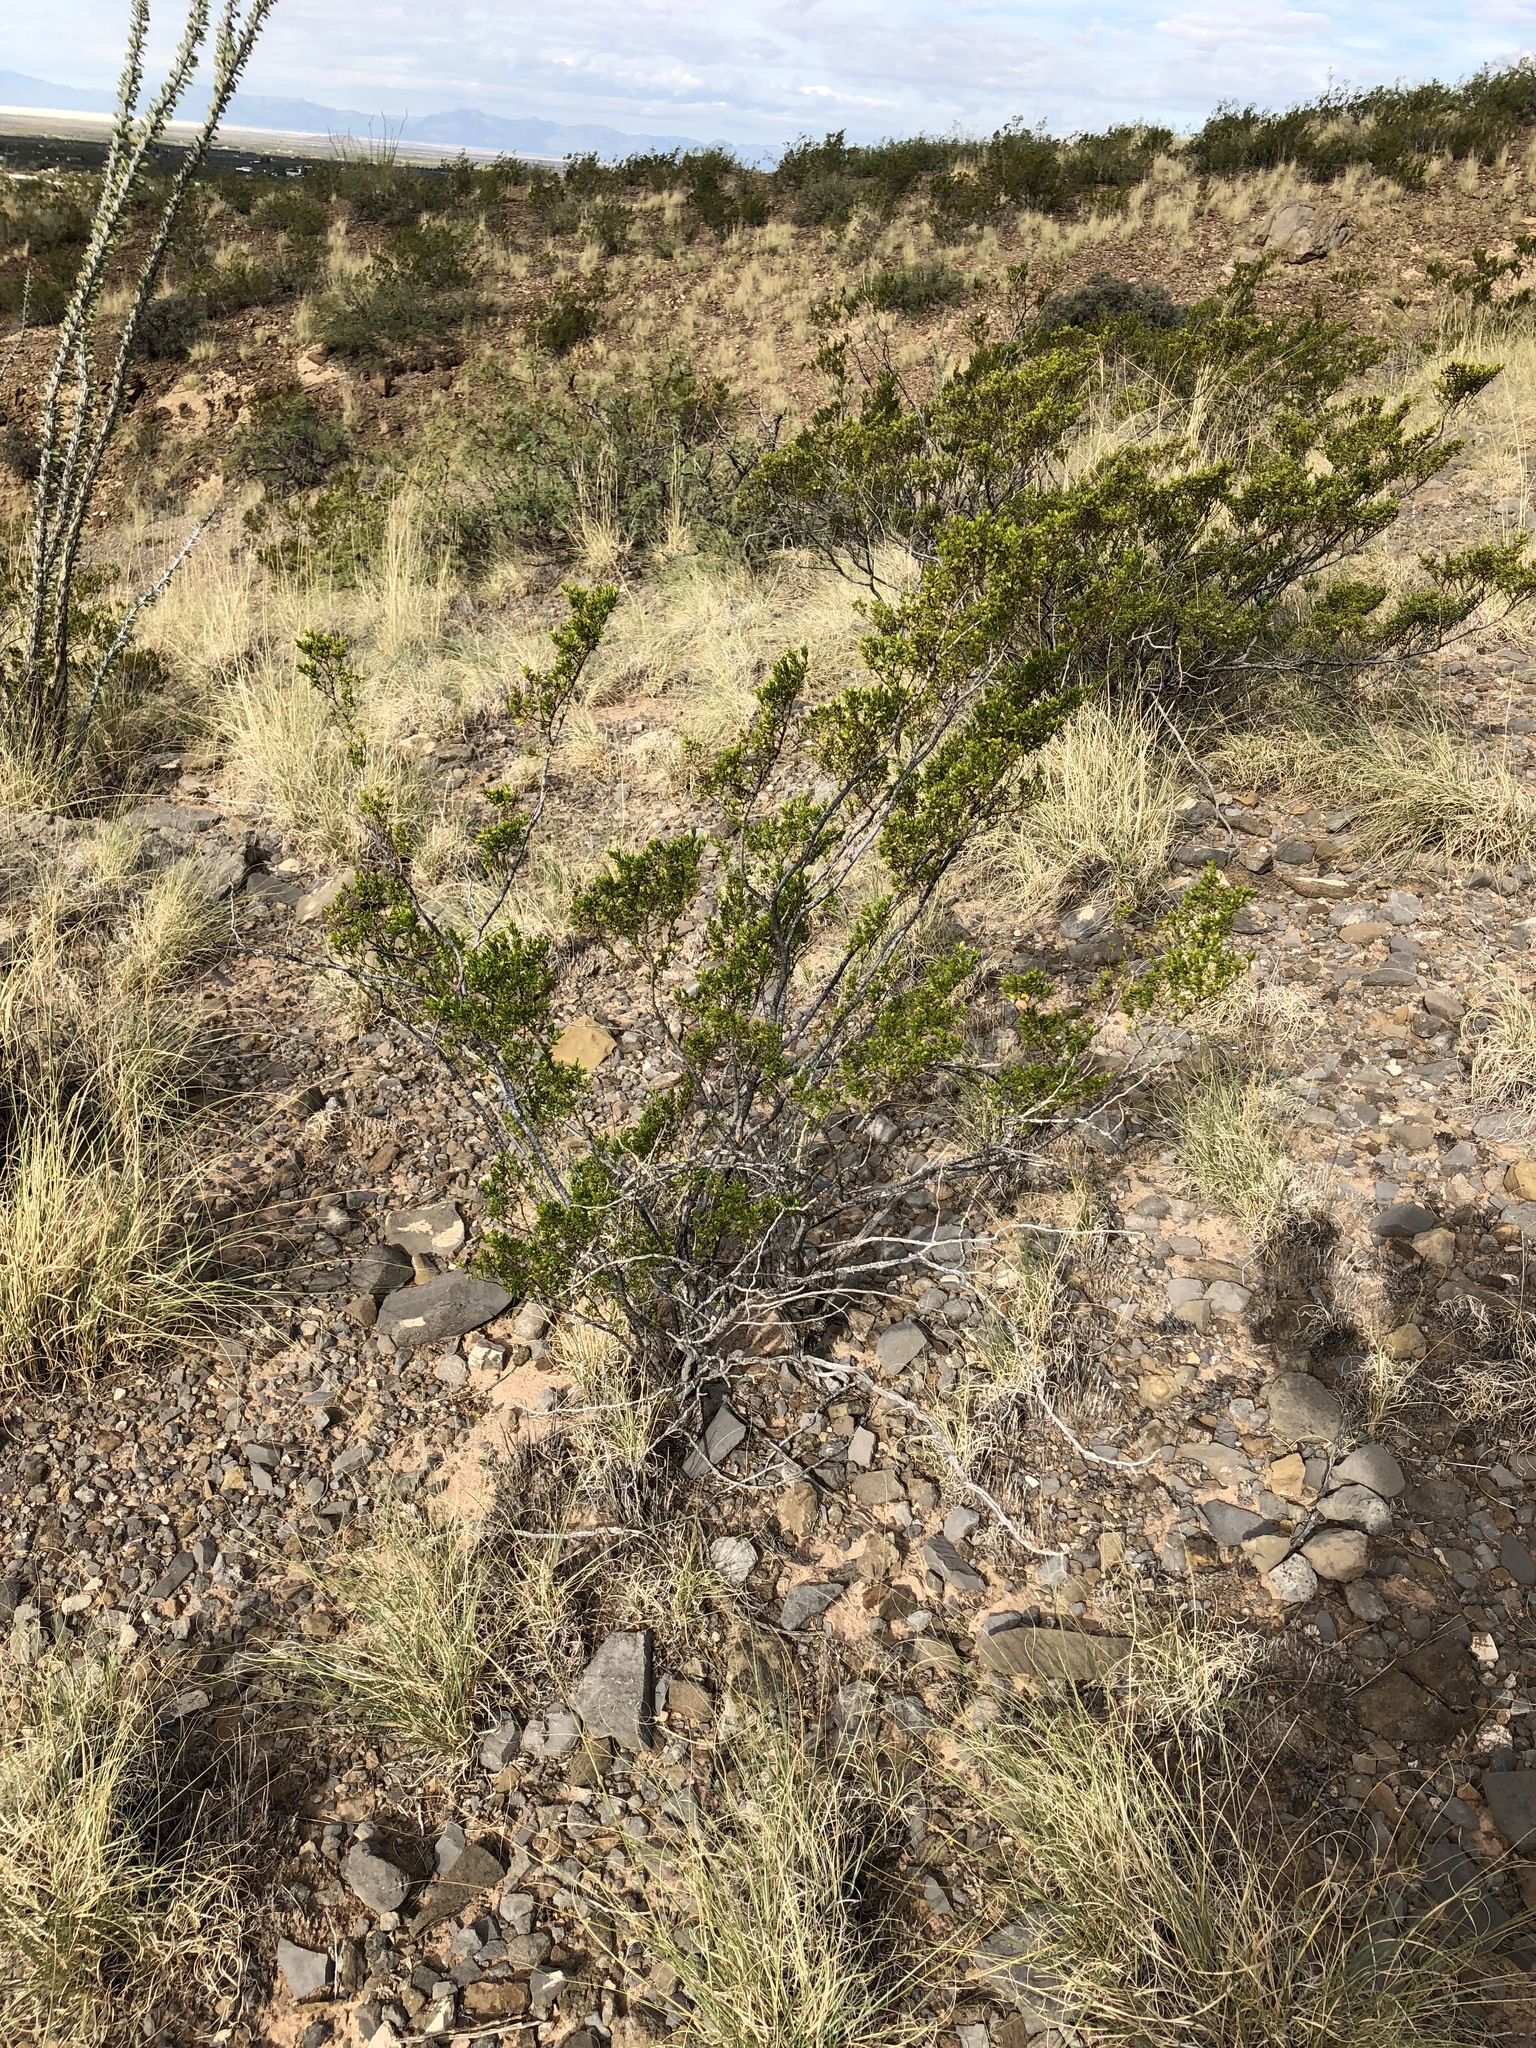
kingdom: Plantae
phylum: Tracheophyta
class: Magnoliopsida
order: Zygophyllales
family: Zygophyllaceae
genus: Larrea
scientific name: Larrea tridentata
